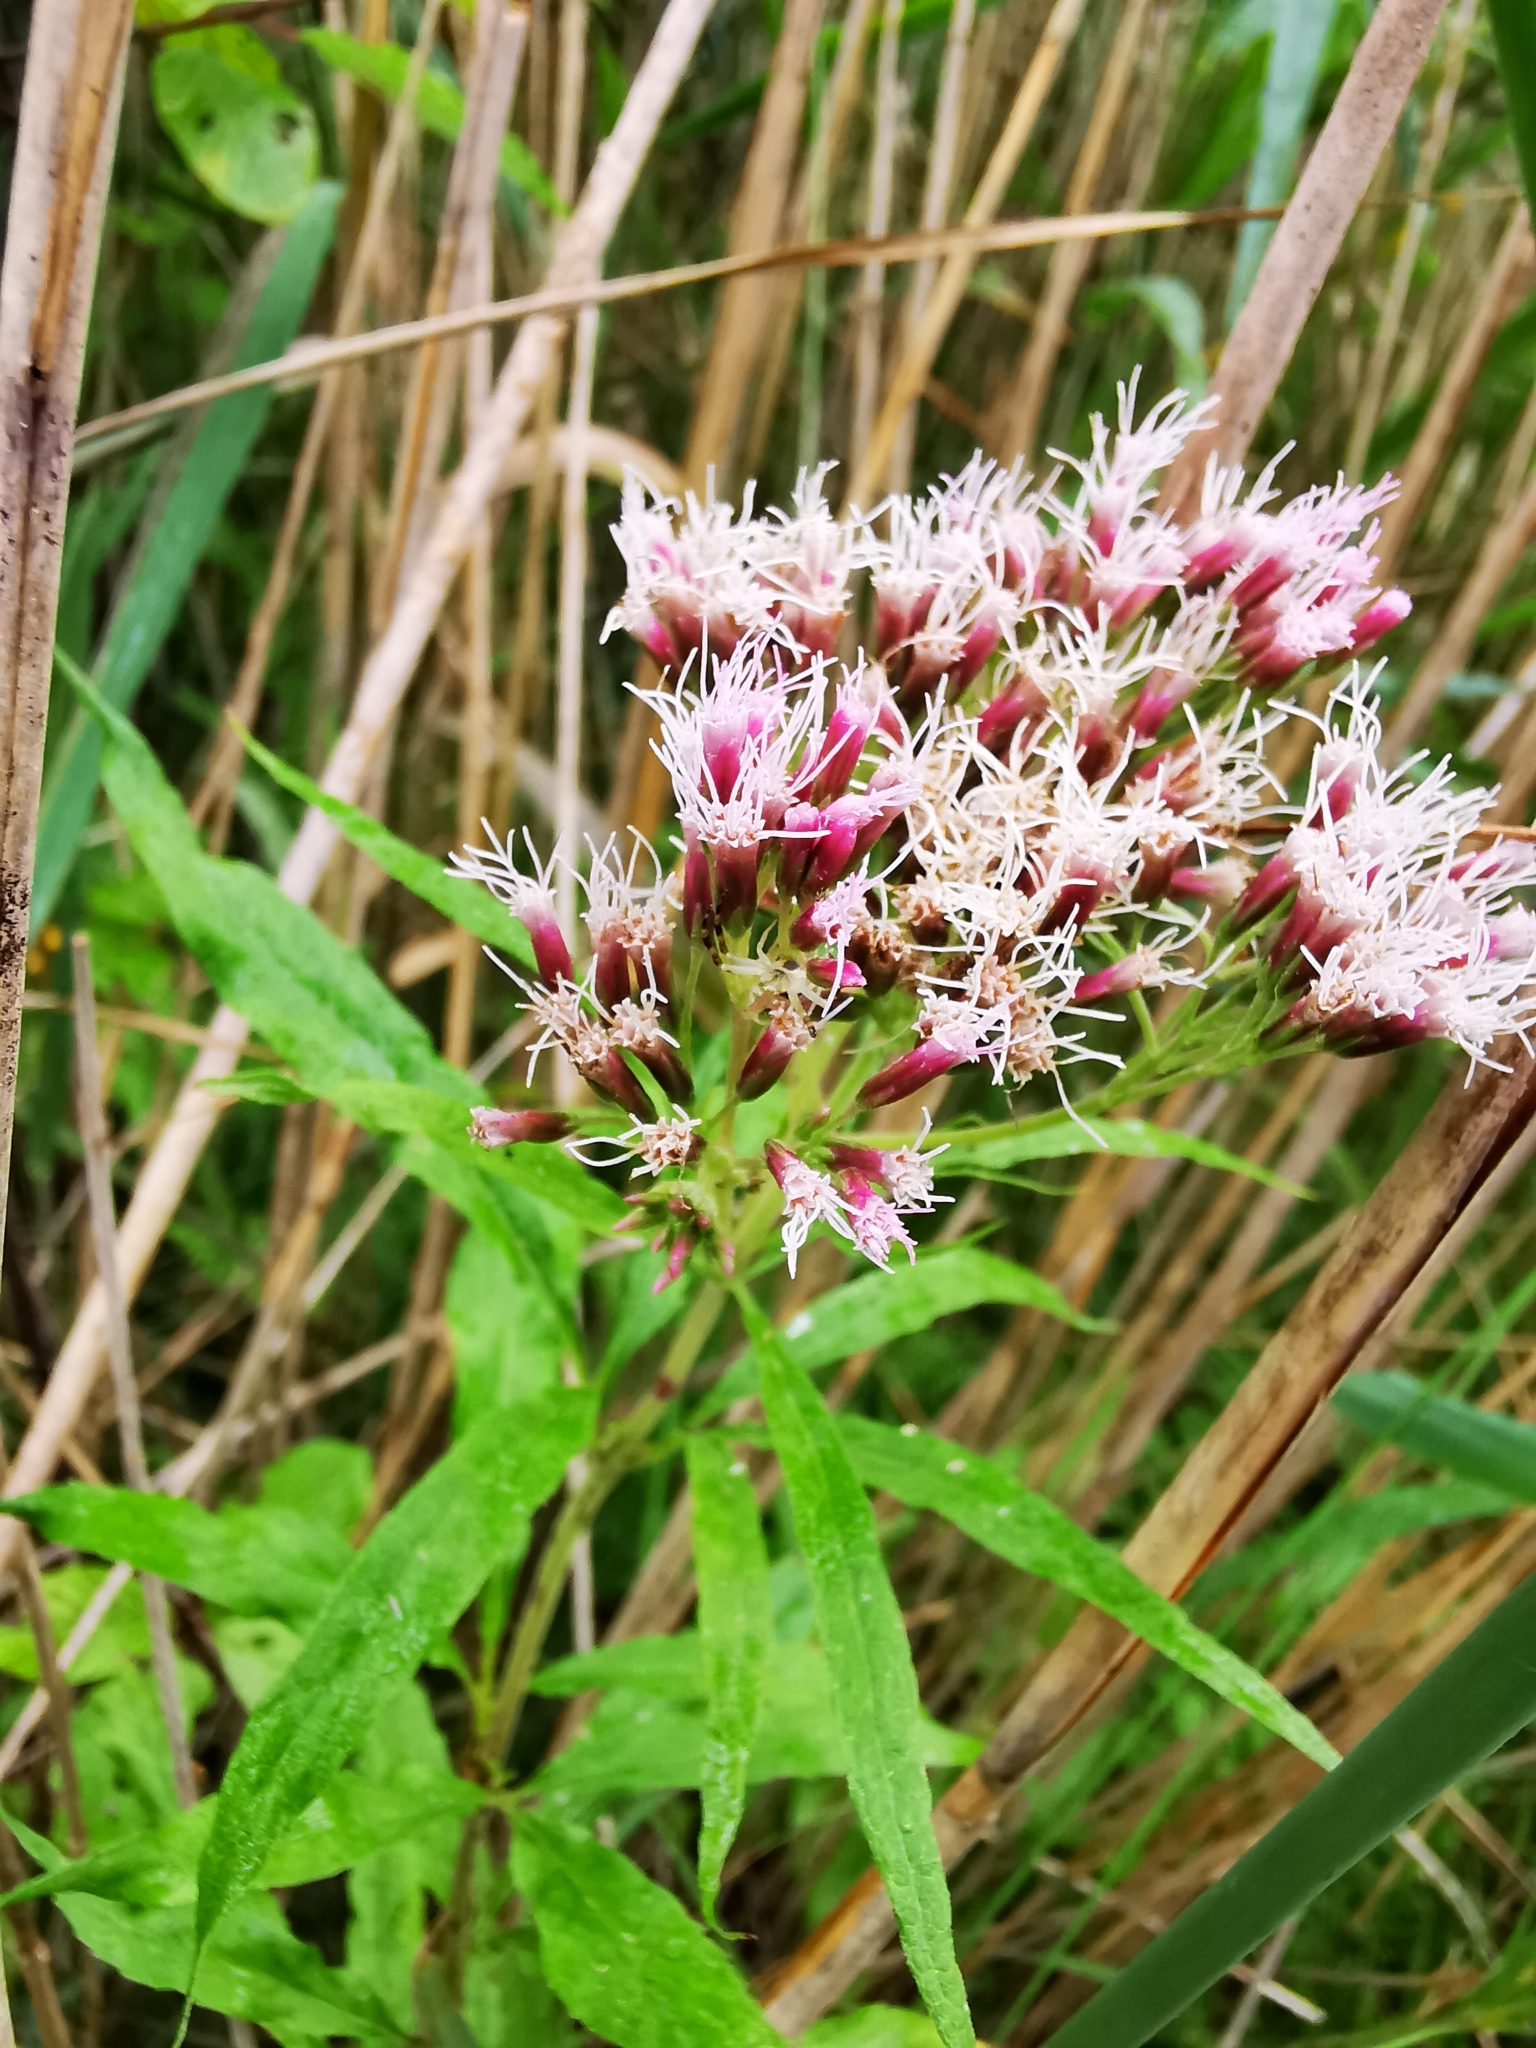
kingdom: Plantae
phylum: Tracheophyta
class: Magnoliopsida
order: Asterales
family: Asteraceae
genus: Eupatorium
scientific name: Eupatorium cannabinum
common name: Hemp-agrimony
